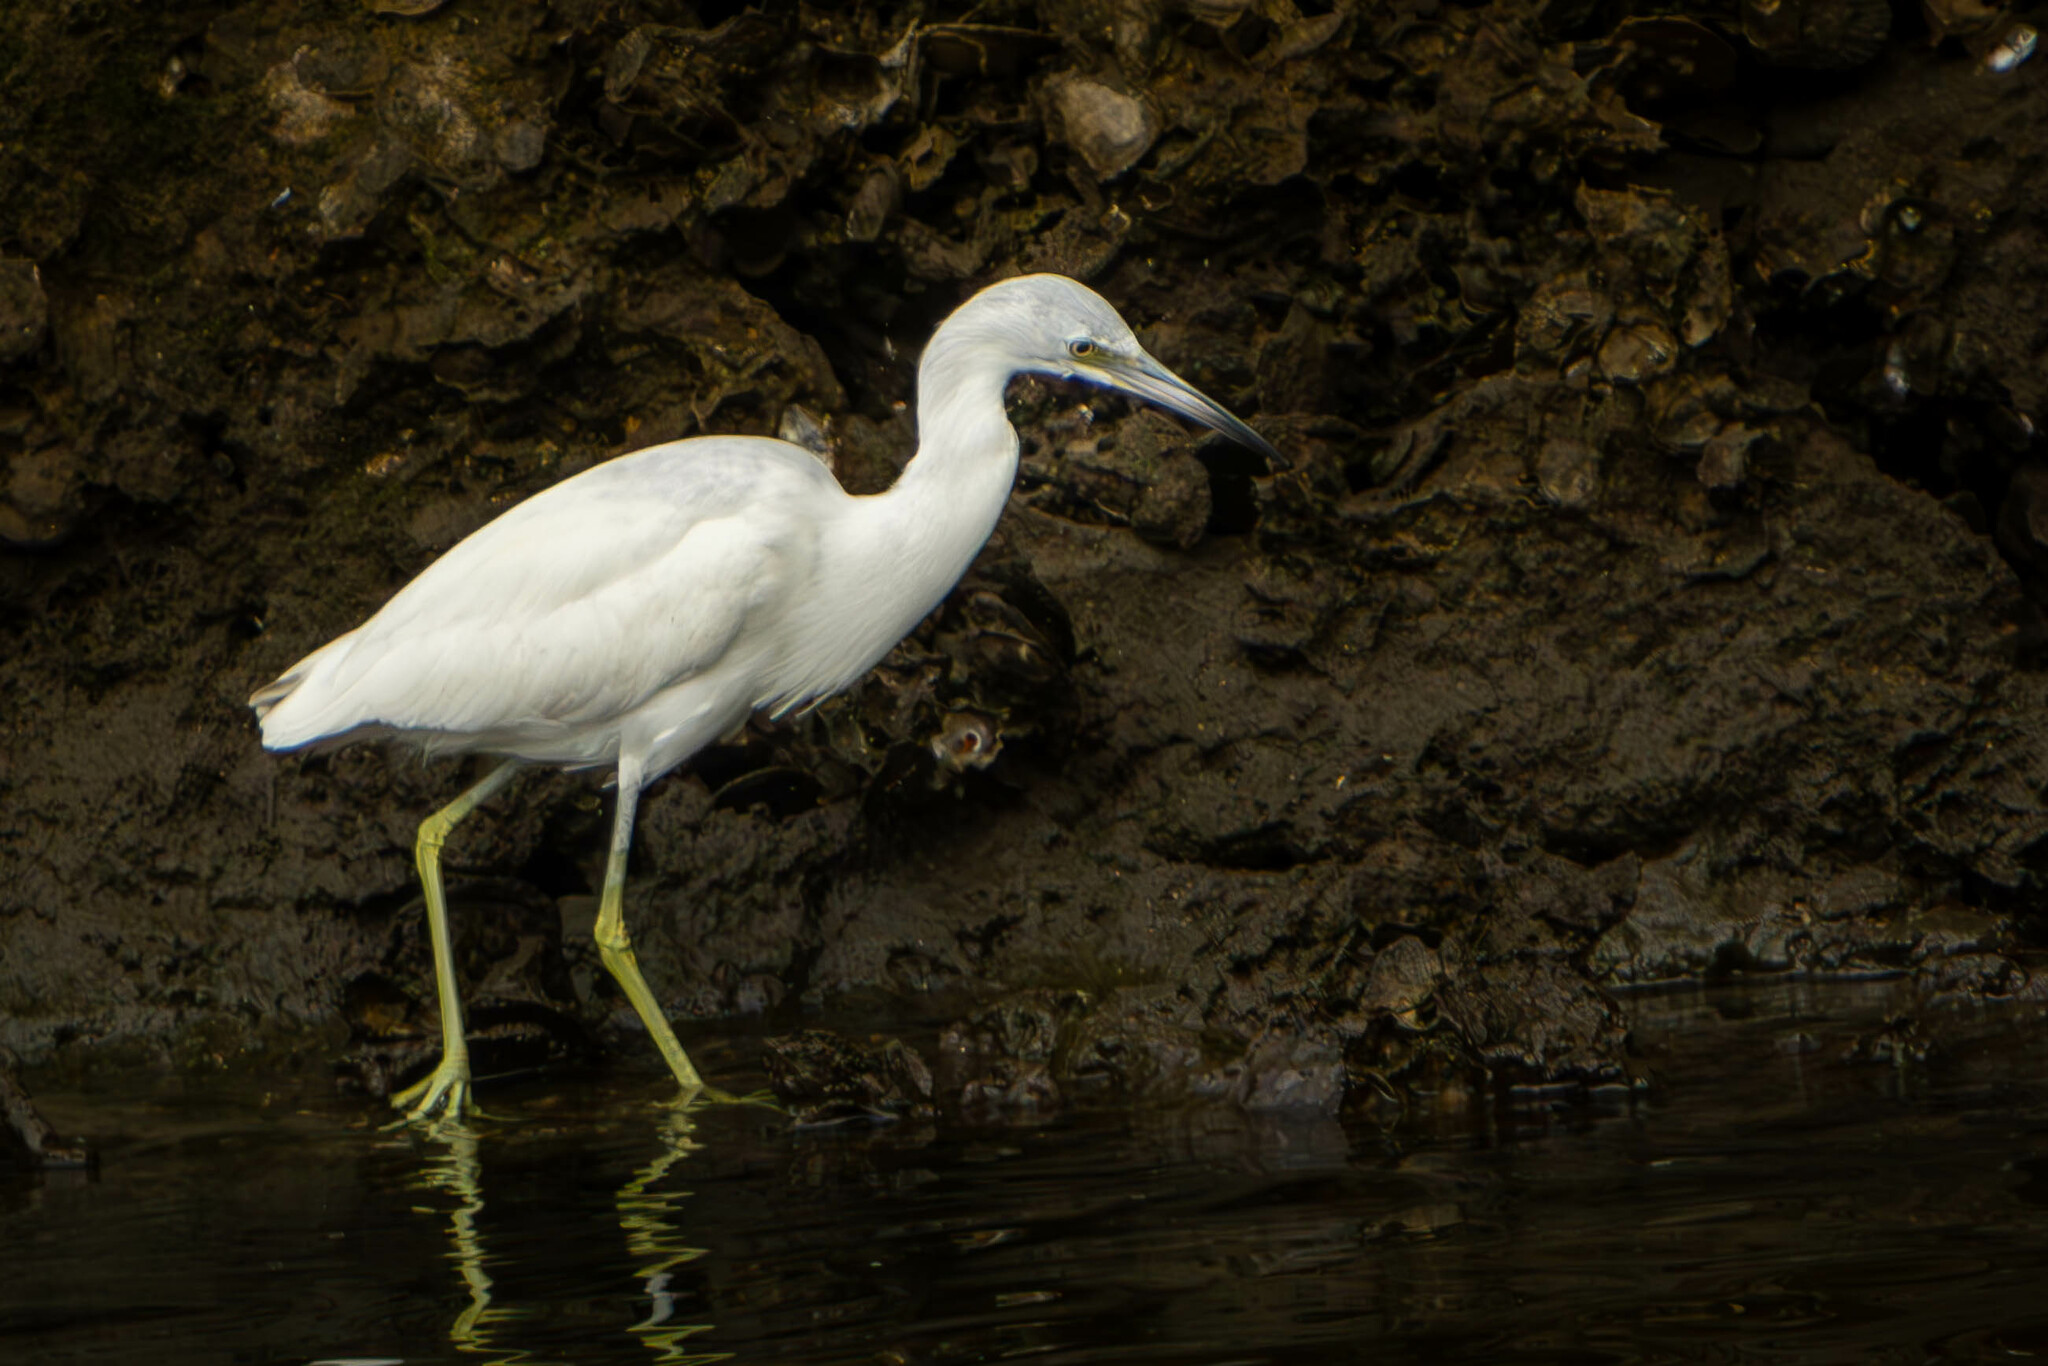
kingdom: Animalia
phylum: Chordata
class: Aves
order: Pelecaniformes
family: Ardeidae
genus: Egretta
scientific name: Egretta caerulea
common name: Little blue heron
